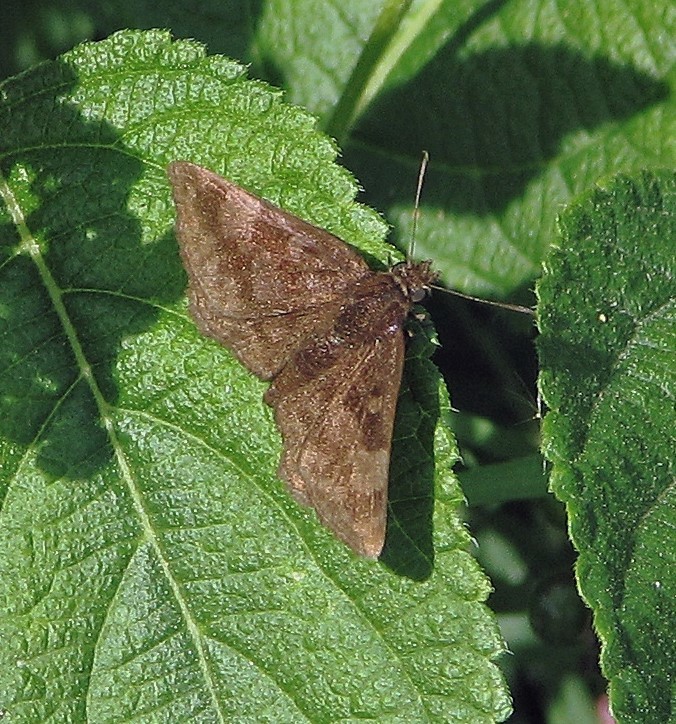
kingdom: Animalia
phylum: Arthropoda
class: Insecta
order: Lepidoptera
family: Hesperiidae
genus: Viola
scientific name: Viola minor
